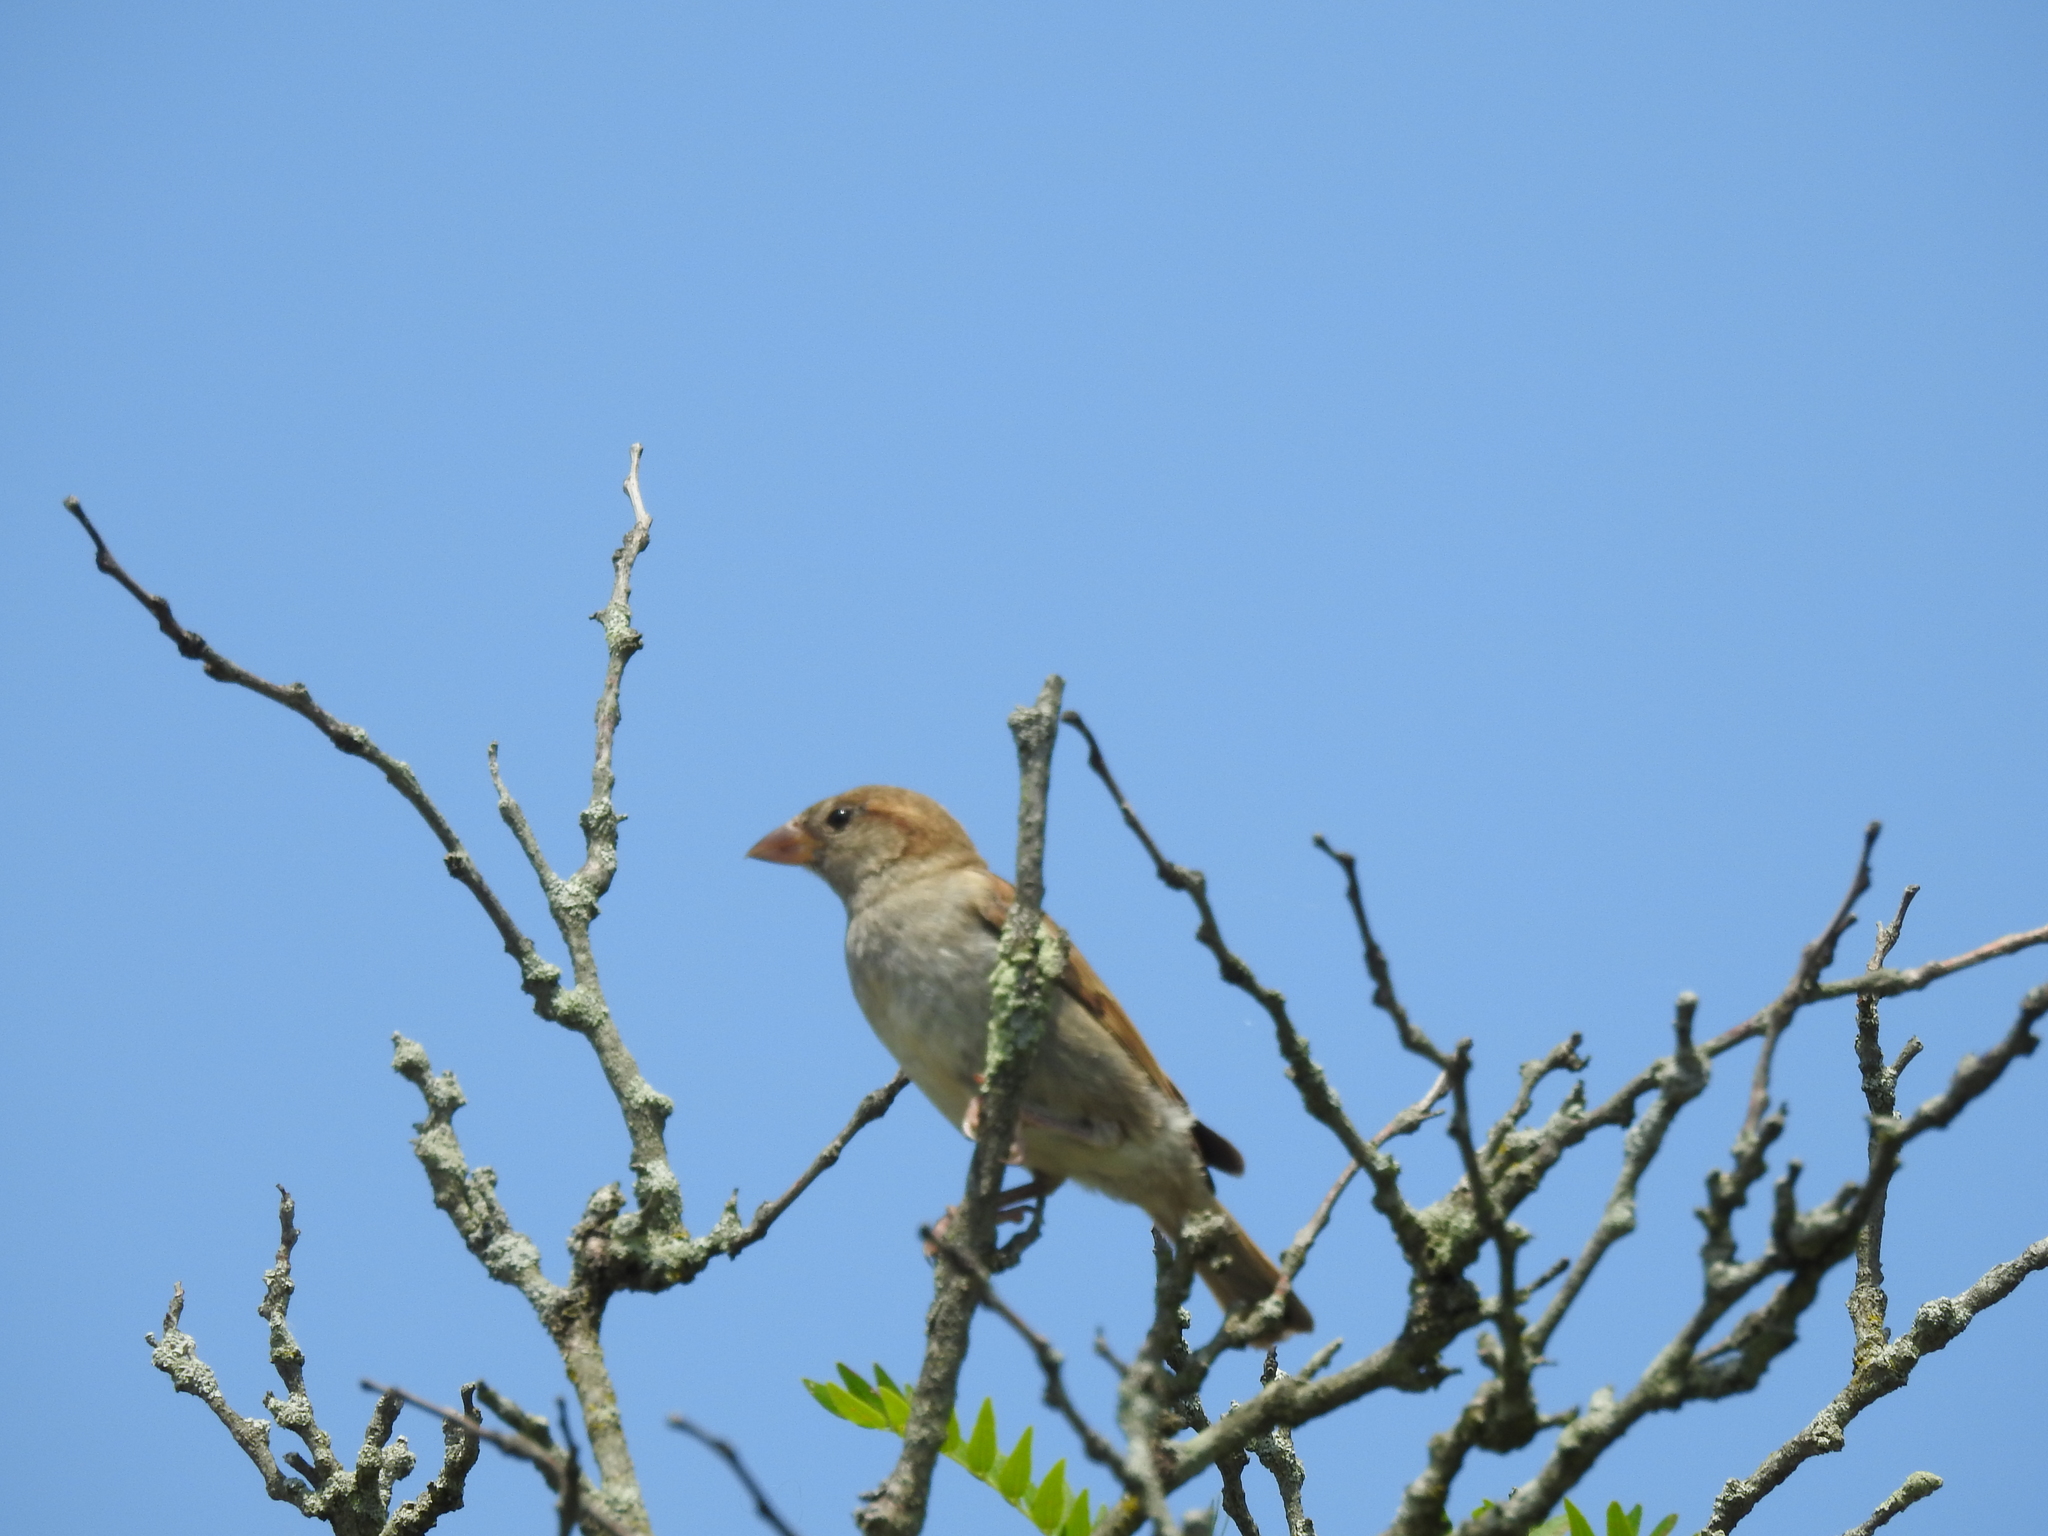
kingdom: Animalia
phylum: Chordata
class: Aves
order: Passeriformes
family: Passeridae
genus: Passer
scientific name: Passer domesticus
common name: House sparrow
